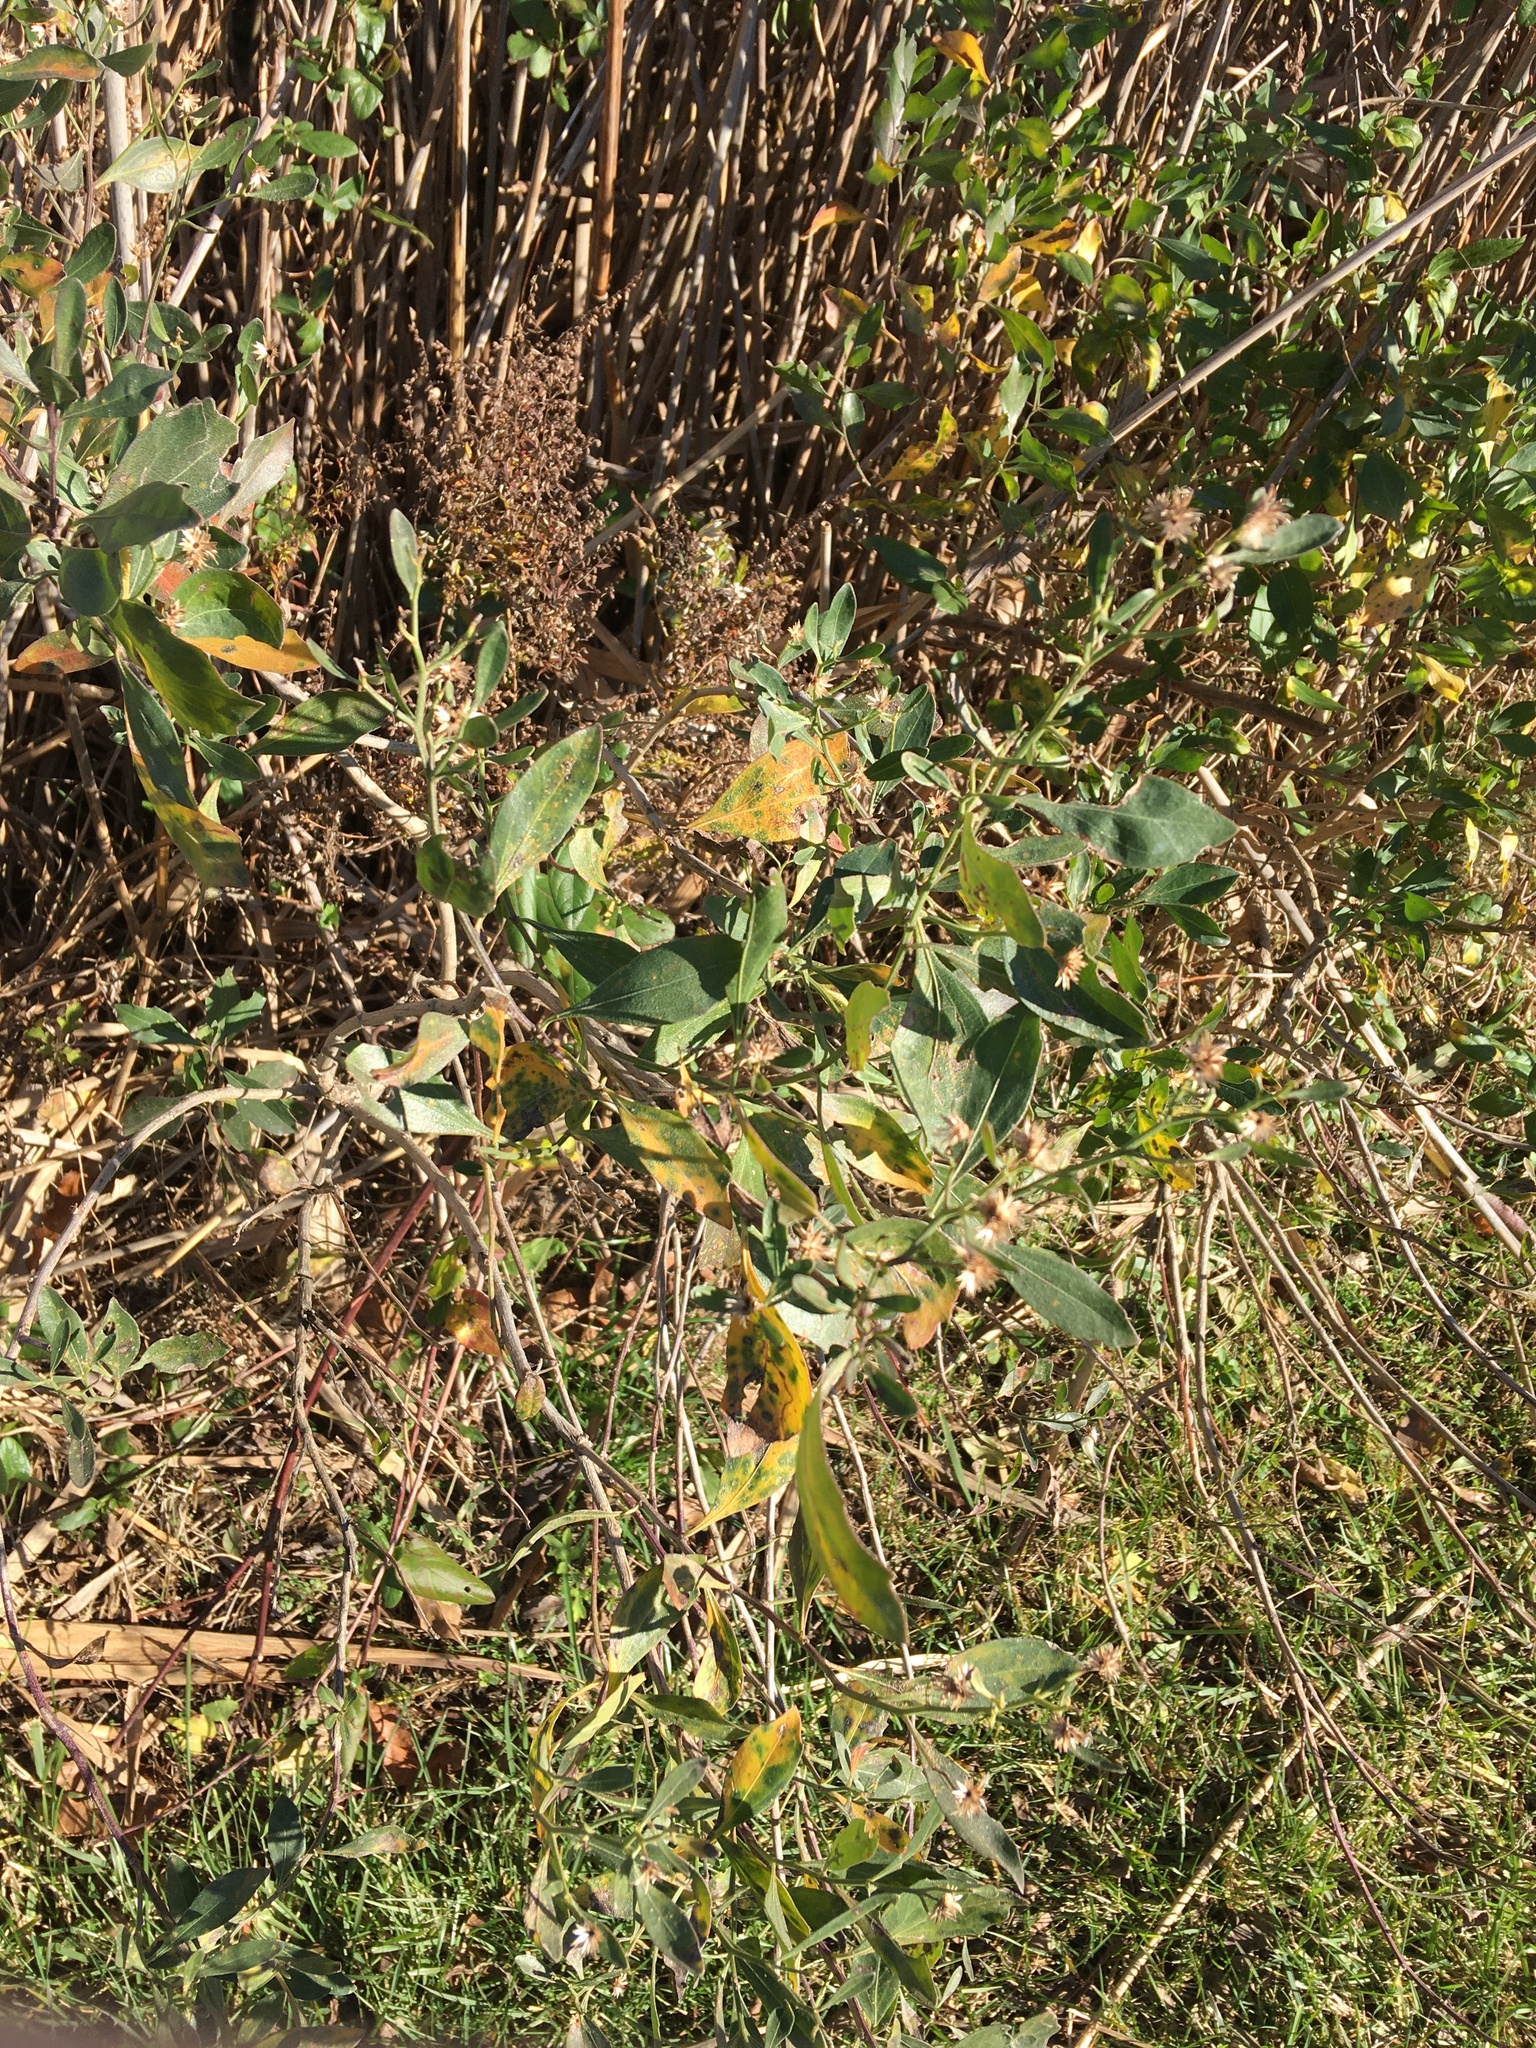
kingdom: Plantae
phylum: Tracheophyta
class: Magnoliopsida
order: Asterales
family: Asteraceae
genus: Baccharis
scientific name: Baccharis halimifolia
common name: Eastern baccharis
